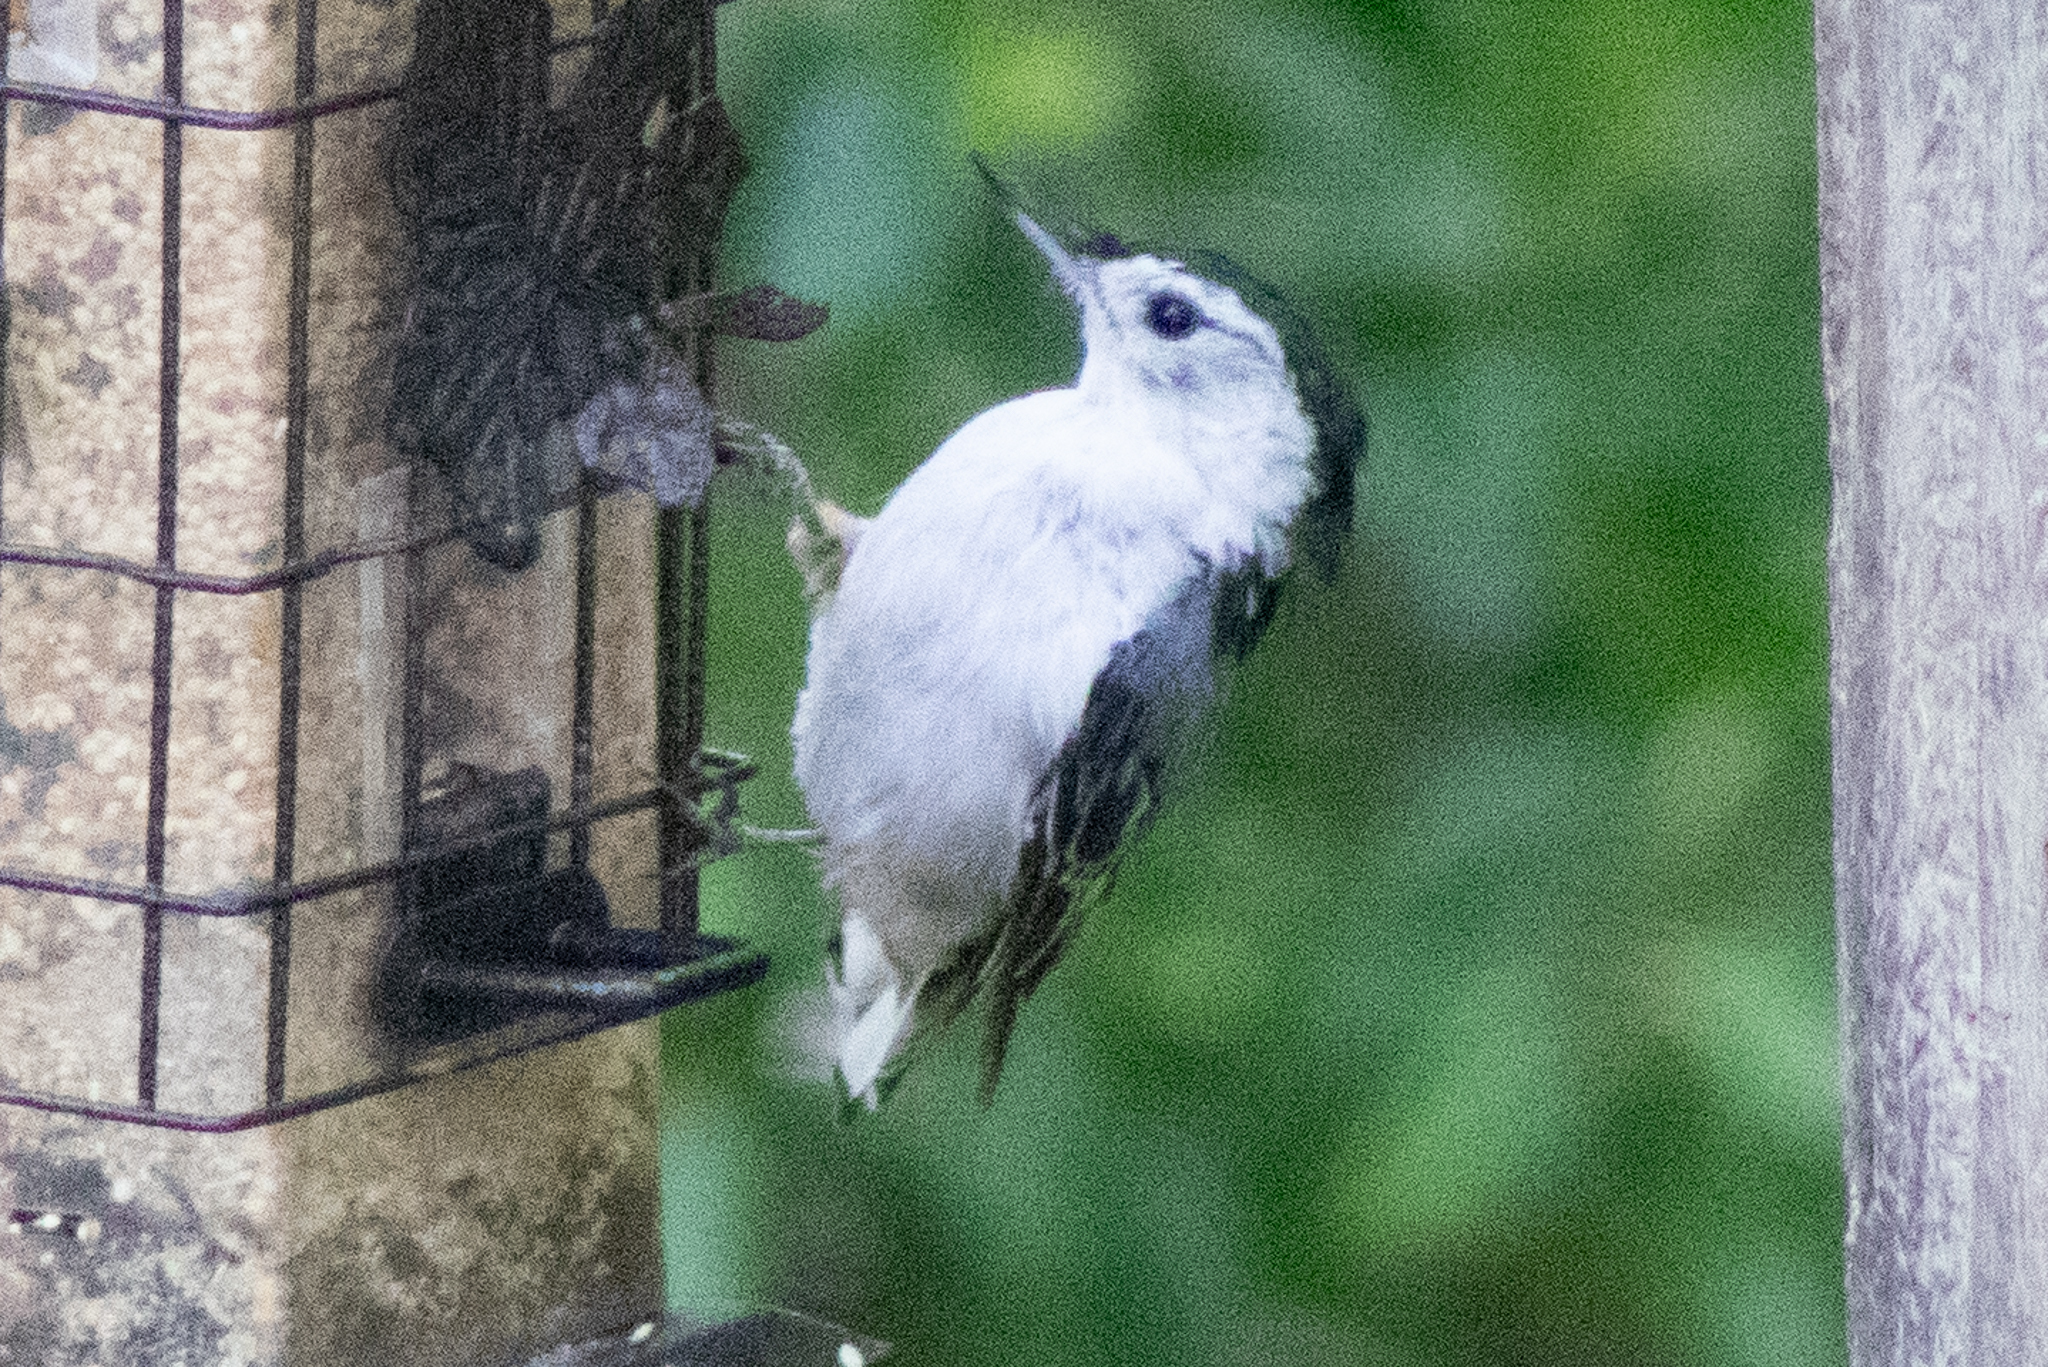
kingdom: Animalia
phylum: Chordata
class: Aves
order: Passeriformes
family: Sittidae
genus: Sitta
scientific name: Sitta carolinensis
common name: White-breasted nuthatch
